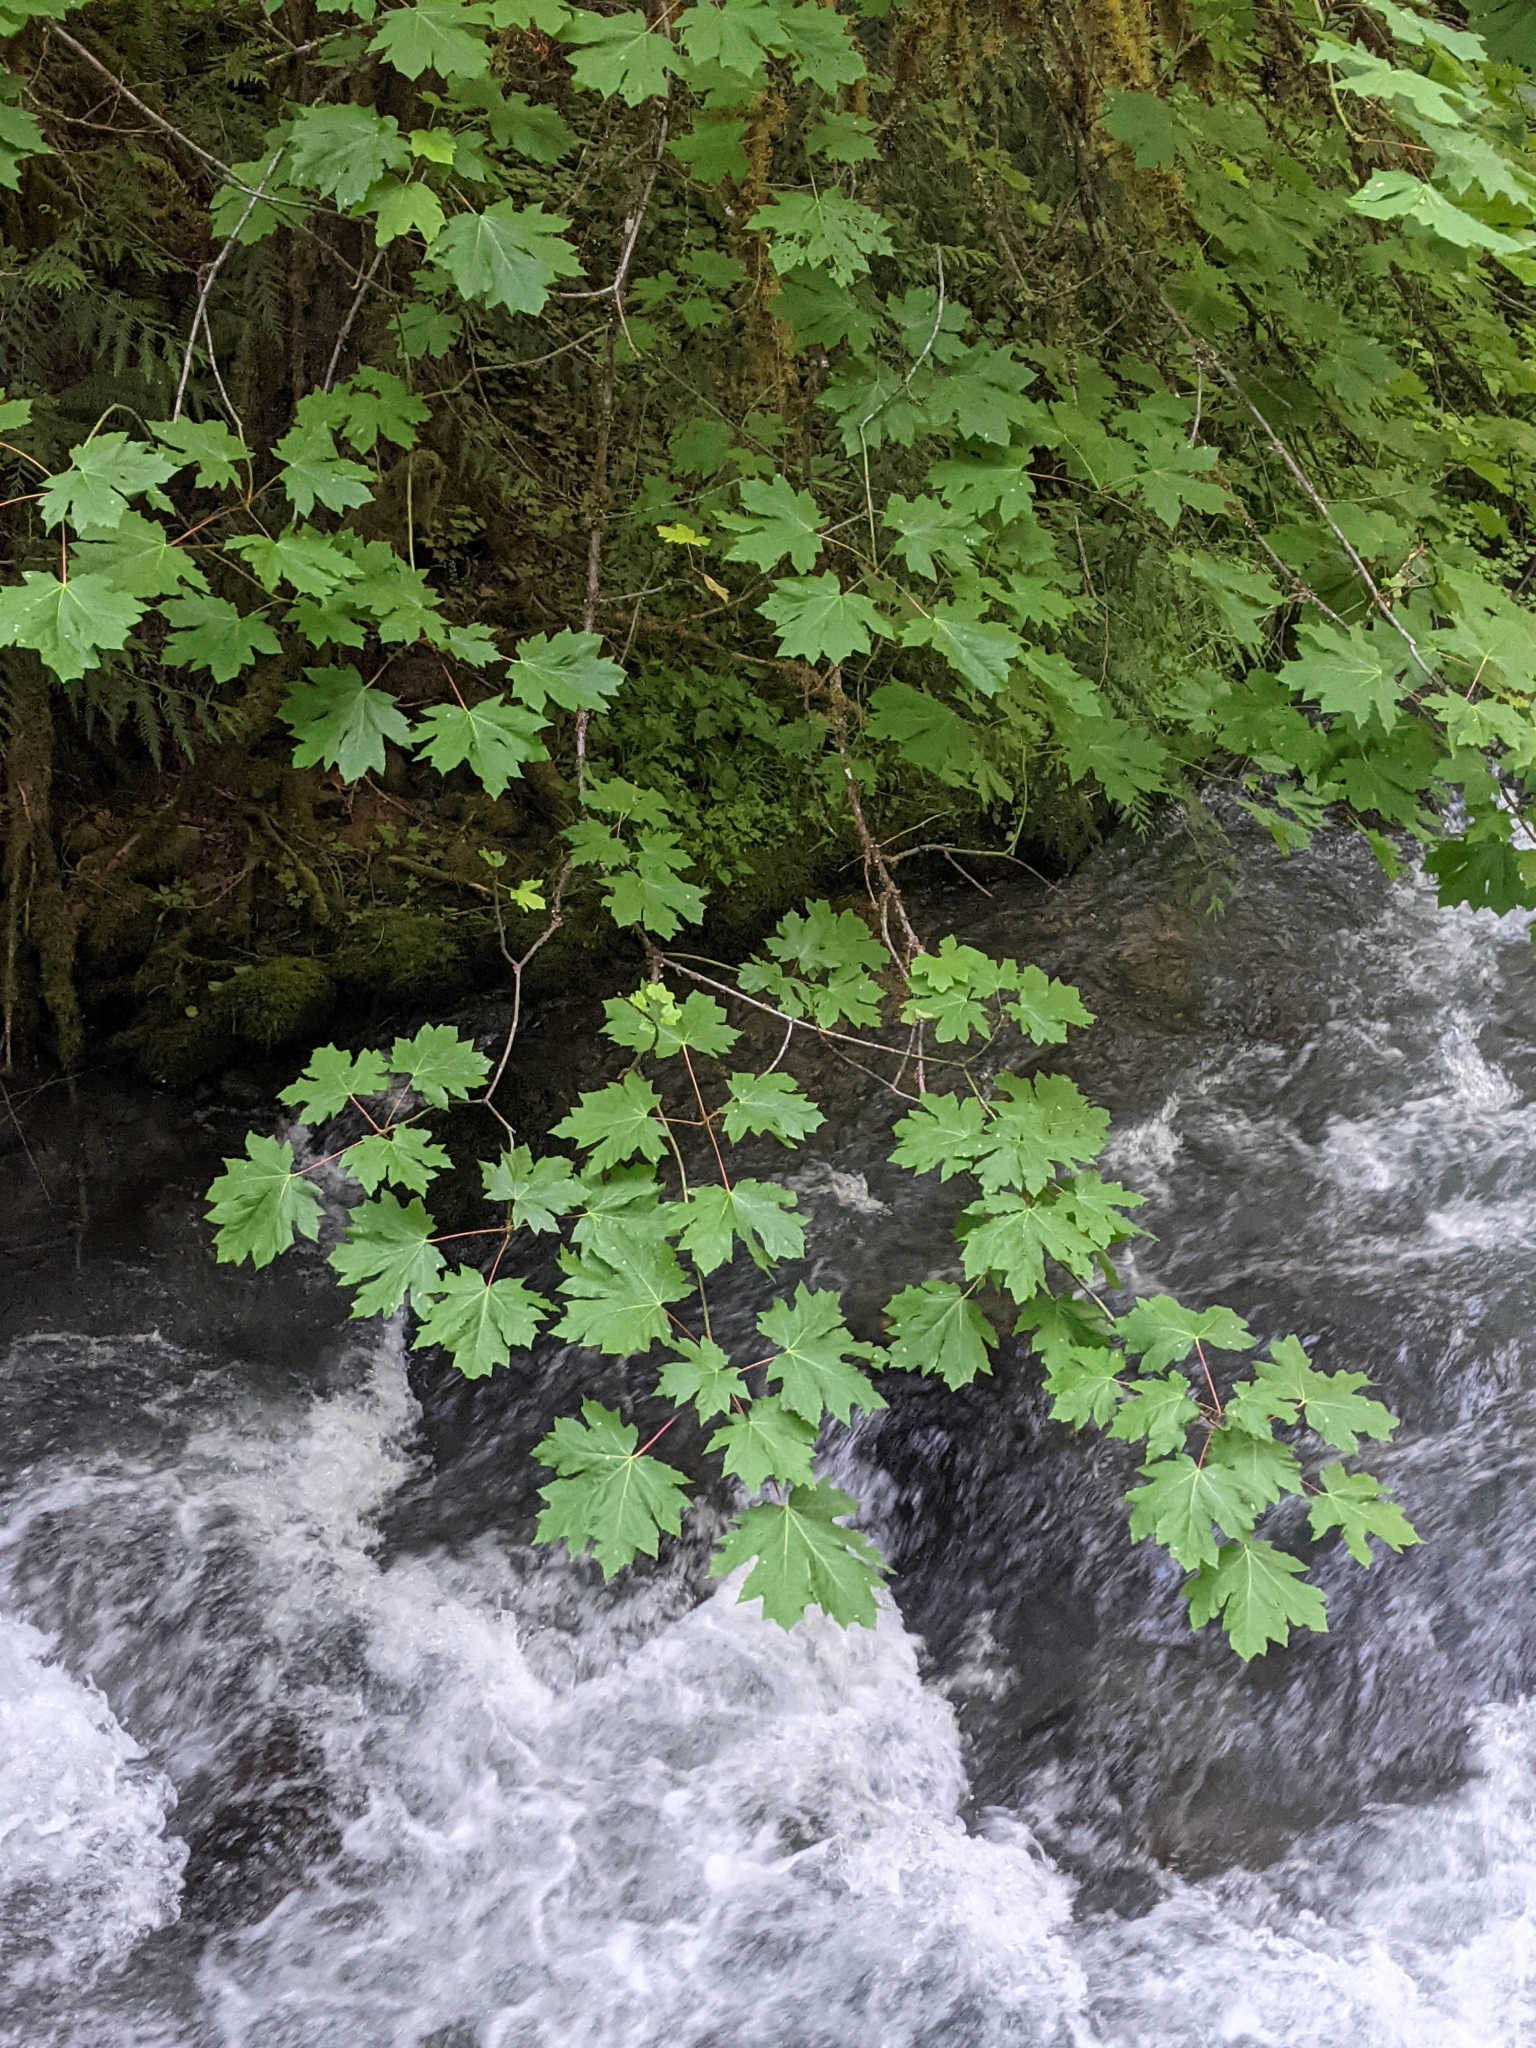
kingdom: Plantae
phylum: Tracheophyta
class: Magnoliopsida
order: Sapindales
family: Sapindaceae
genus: Acer
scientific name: Acer macrophyllum
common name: Oregon maple
